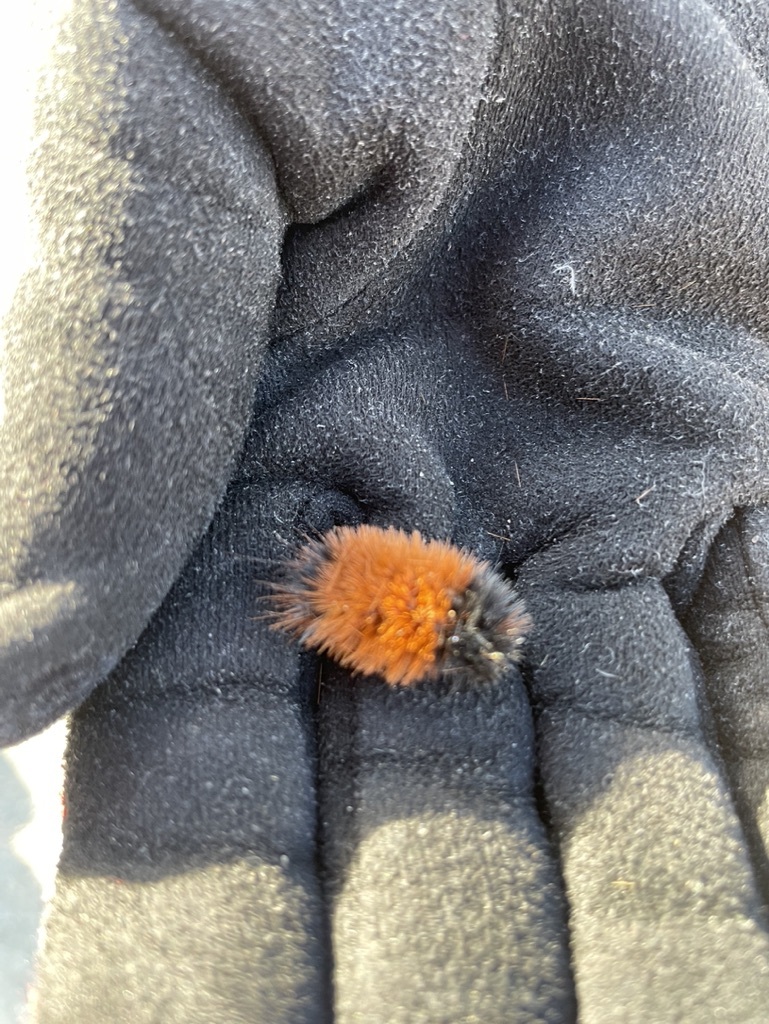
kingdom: Animalia
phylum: Arthropoda
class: Insecta
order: Lepidoptera
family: Erebidae
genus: Pyrrharctia
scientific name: Pyrrharctia isabella
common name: Isabella tiger moth
